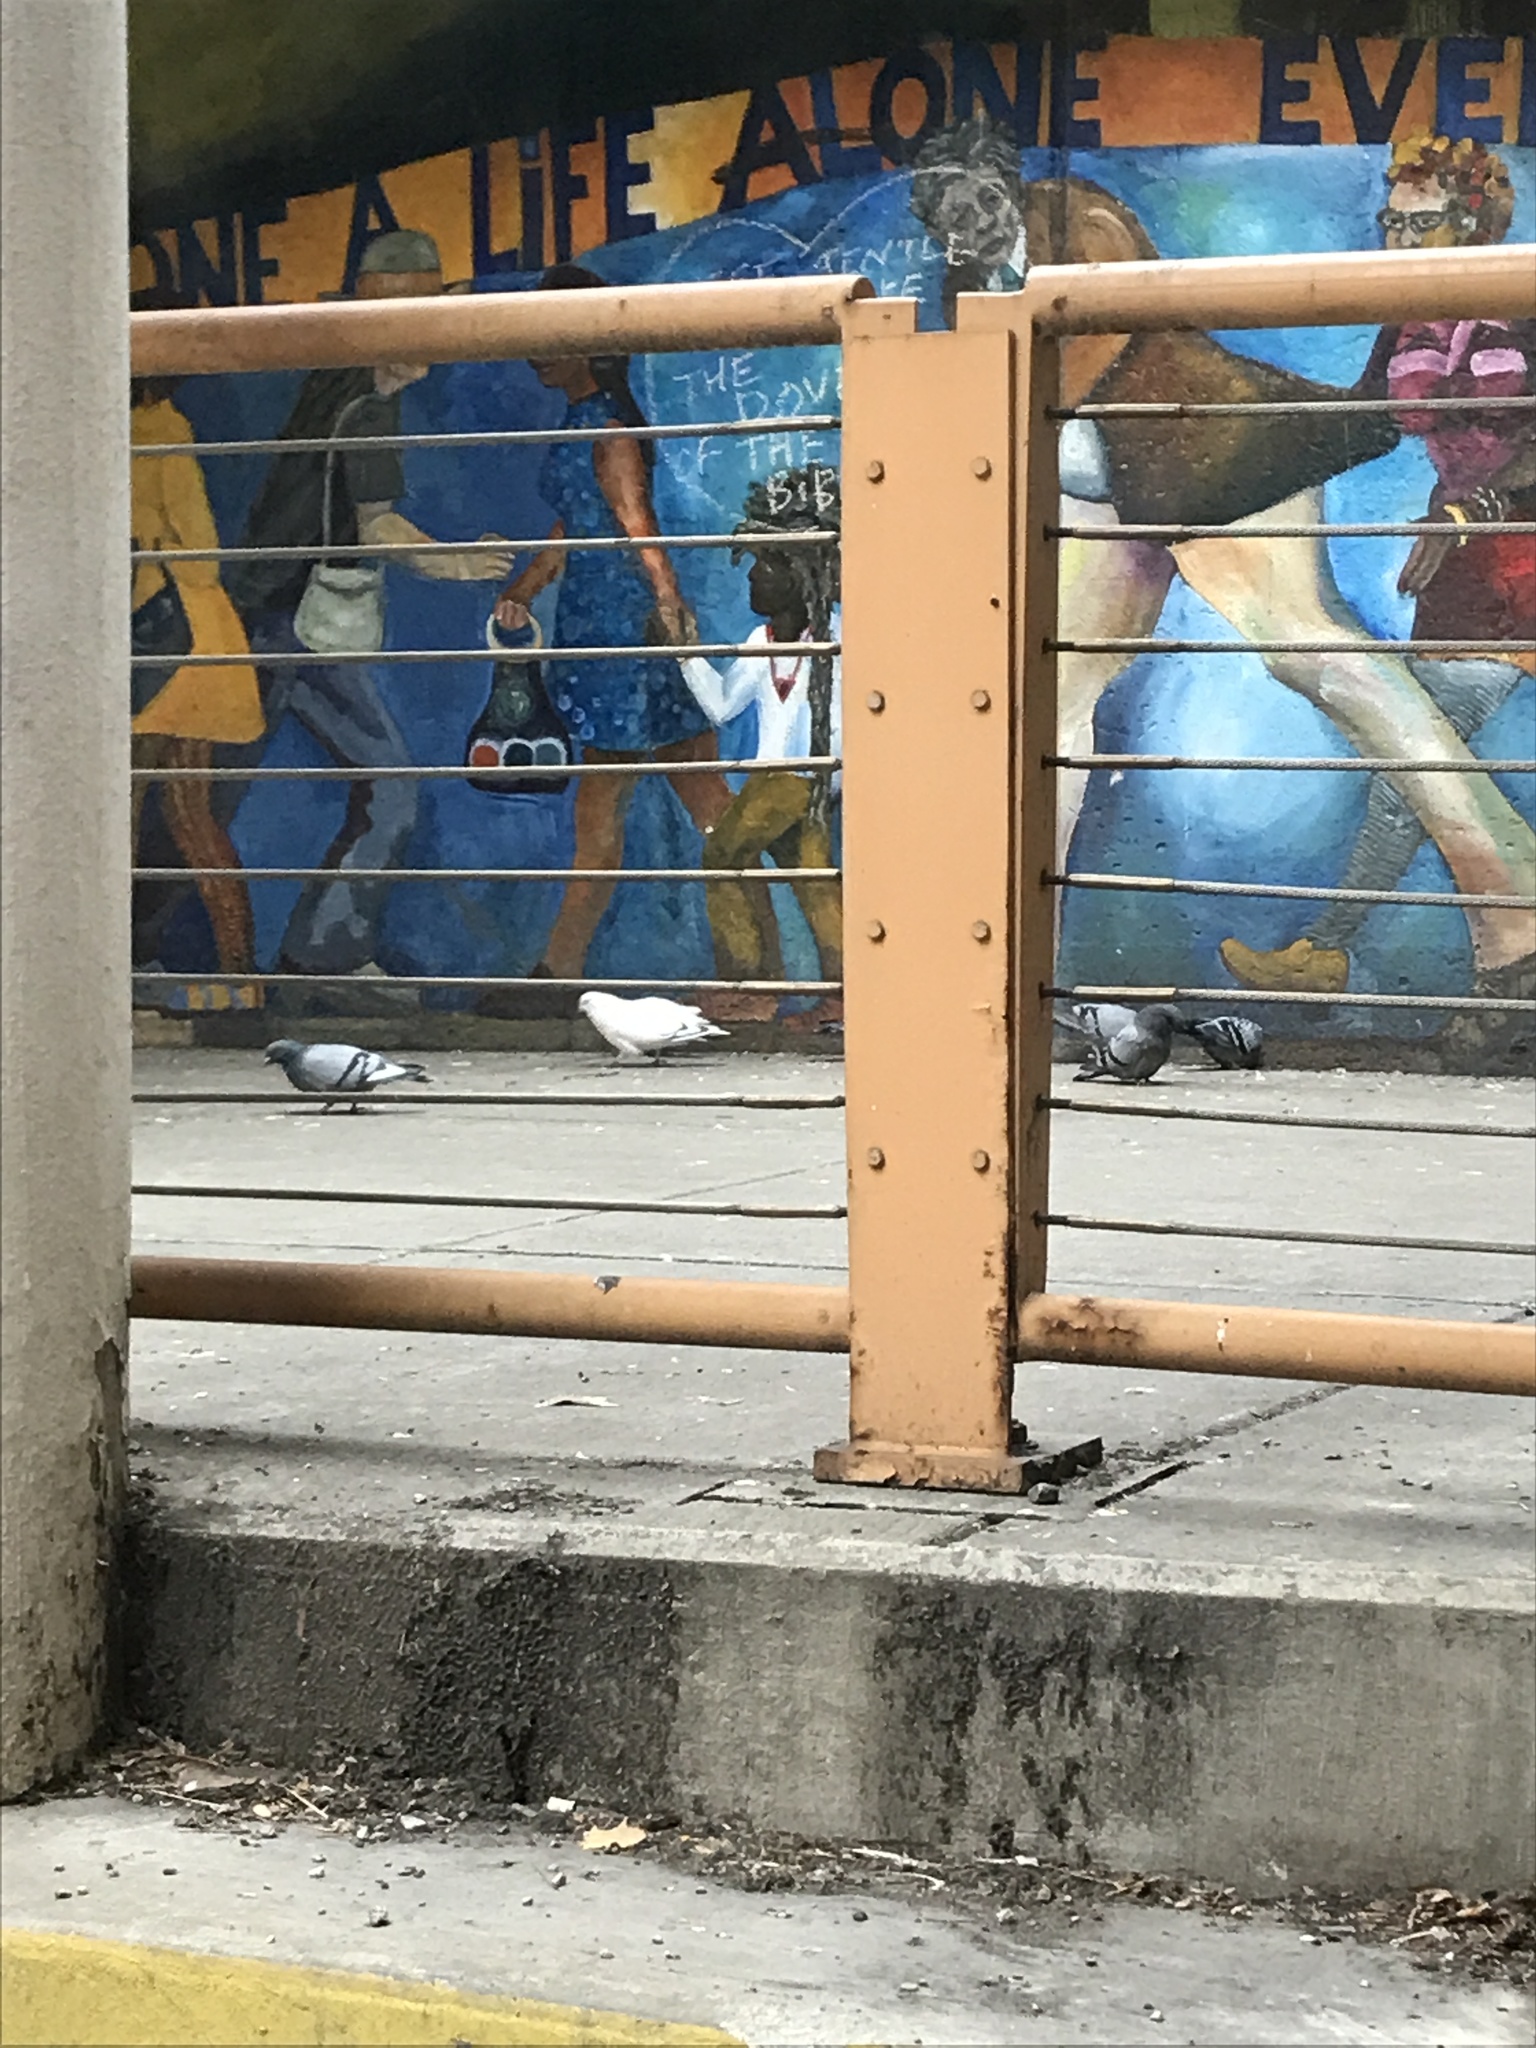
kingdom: Animalia
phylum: Chordata
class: Aves
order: Columbiformes
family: Columbidae
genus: Columba
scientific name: Columba livia
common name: Rock pigeon
